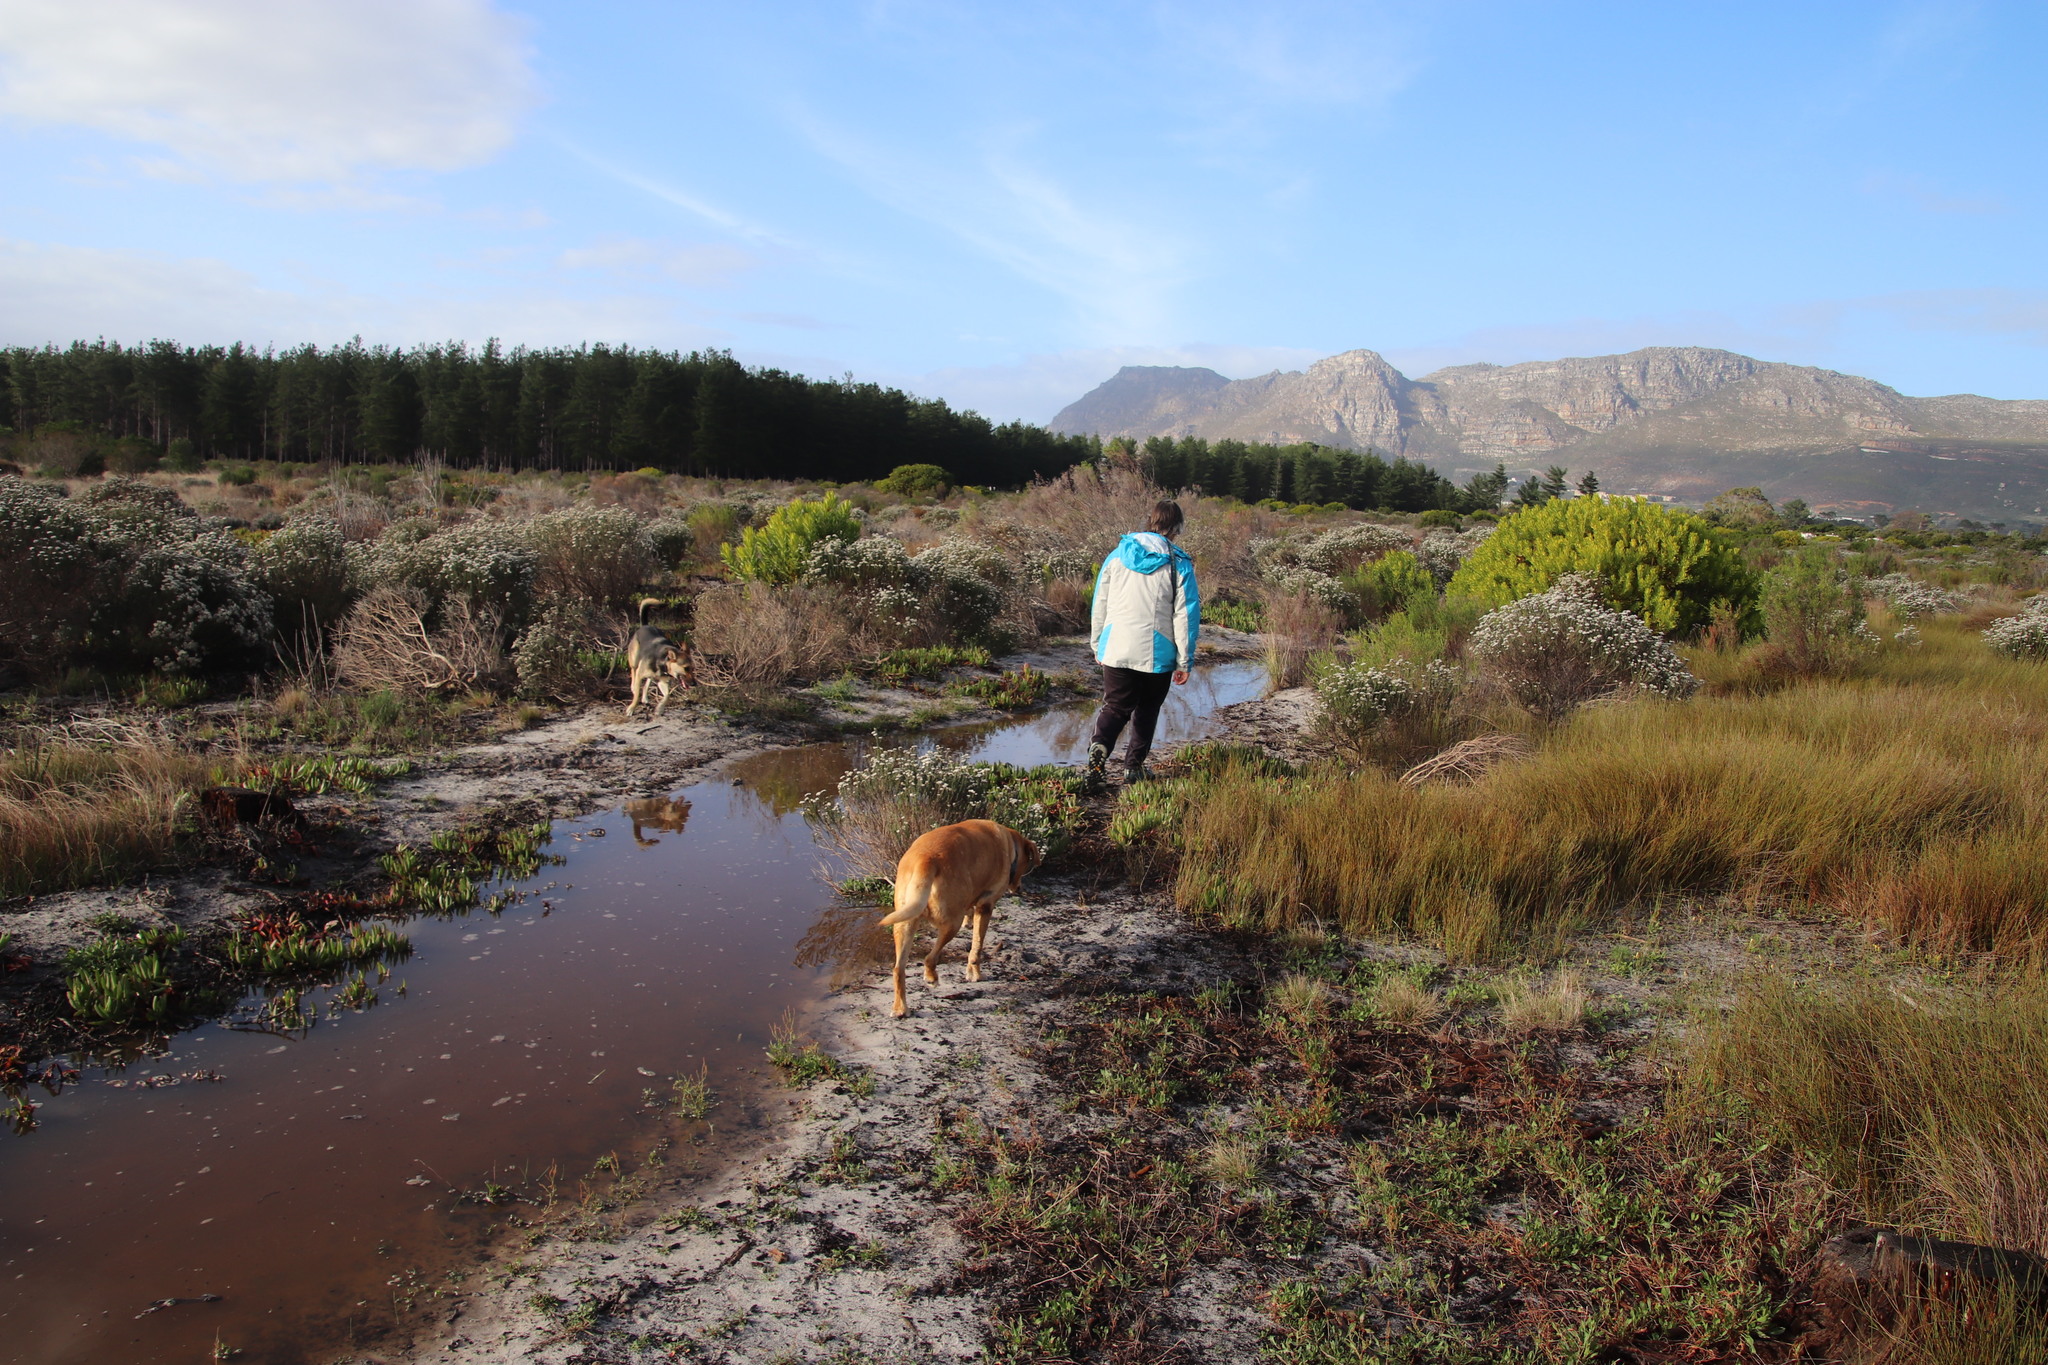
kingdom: Plantae
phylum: Tracheophyta
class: Liliopsida
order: Poales
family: Restionaceae
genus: Willdenowia
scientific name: Willdenowia sulcata
